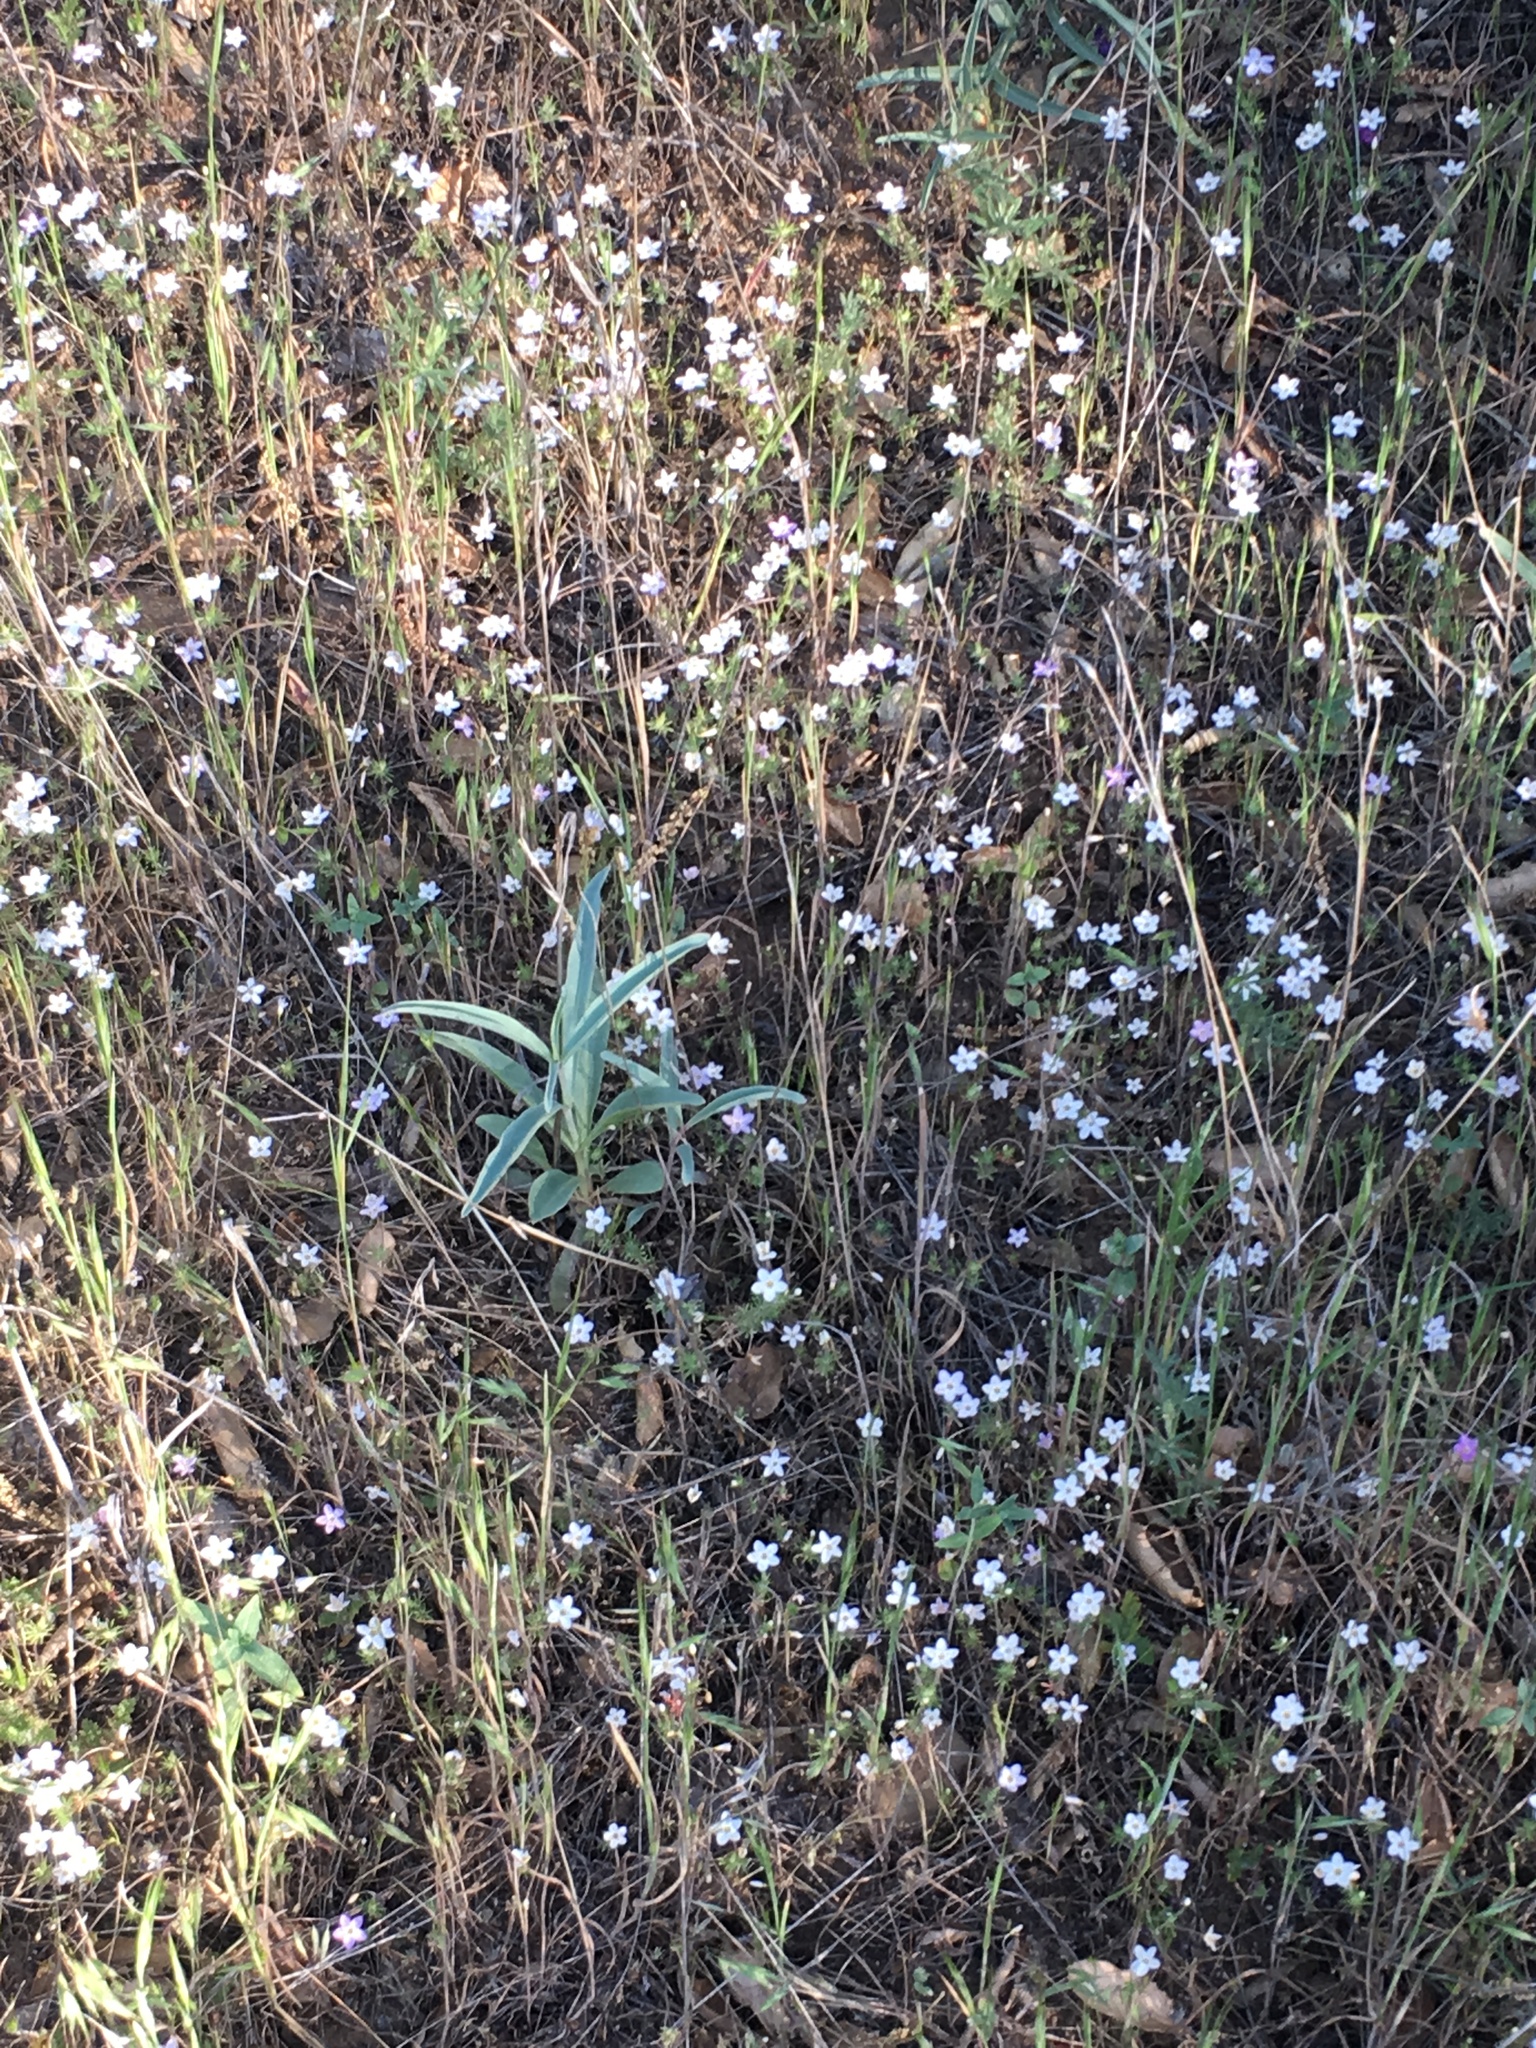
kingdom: Plantae
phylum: Tracheophyta
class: Magnoliopsida
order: Ericales
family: Polemoniaceae
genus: Leptosiphon
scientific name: Leptosiphon parviflorus
